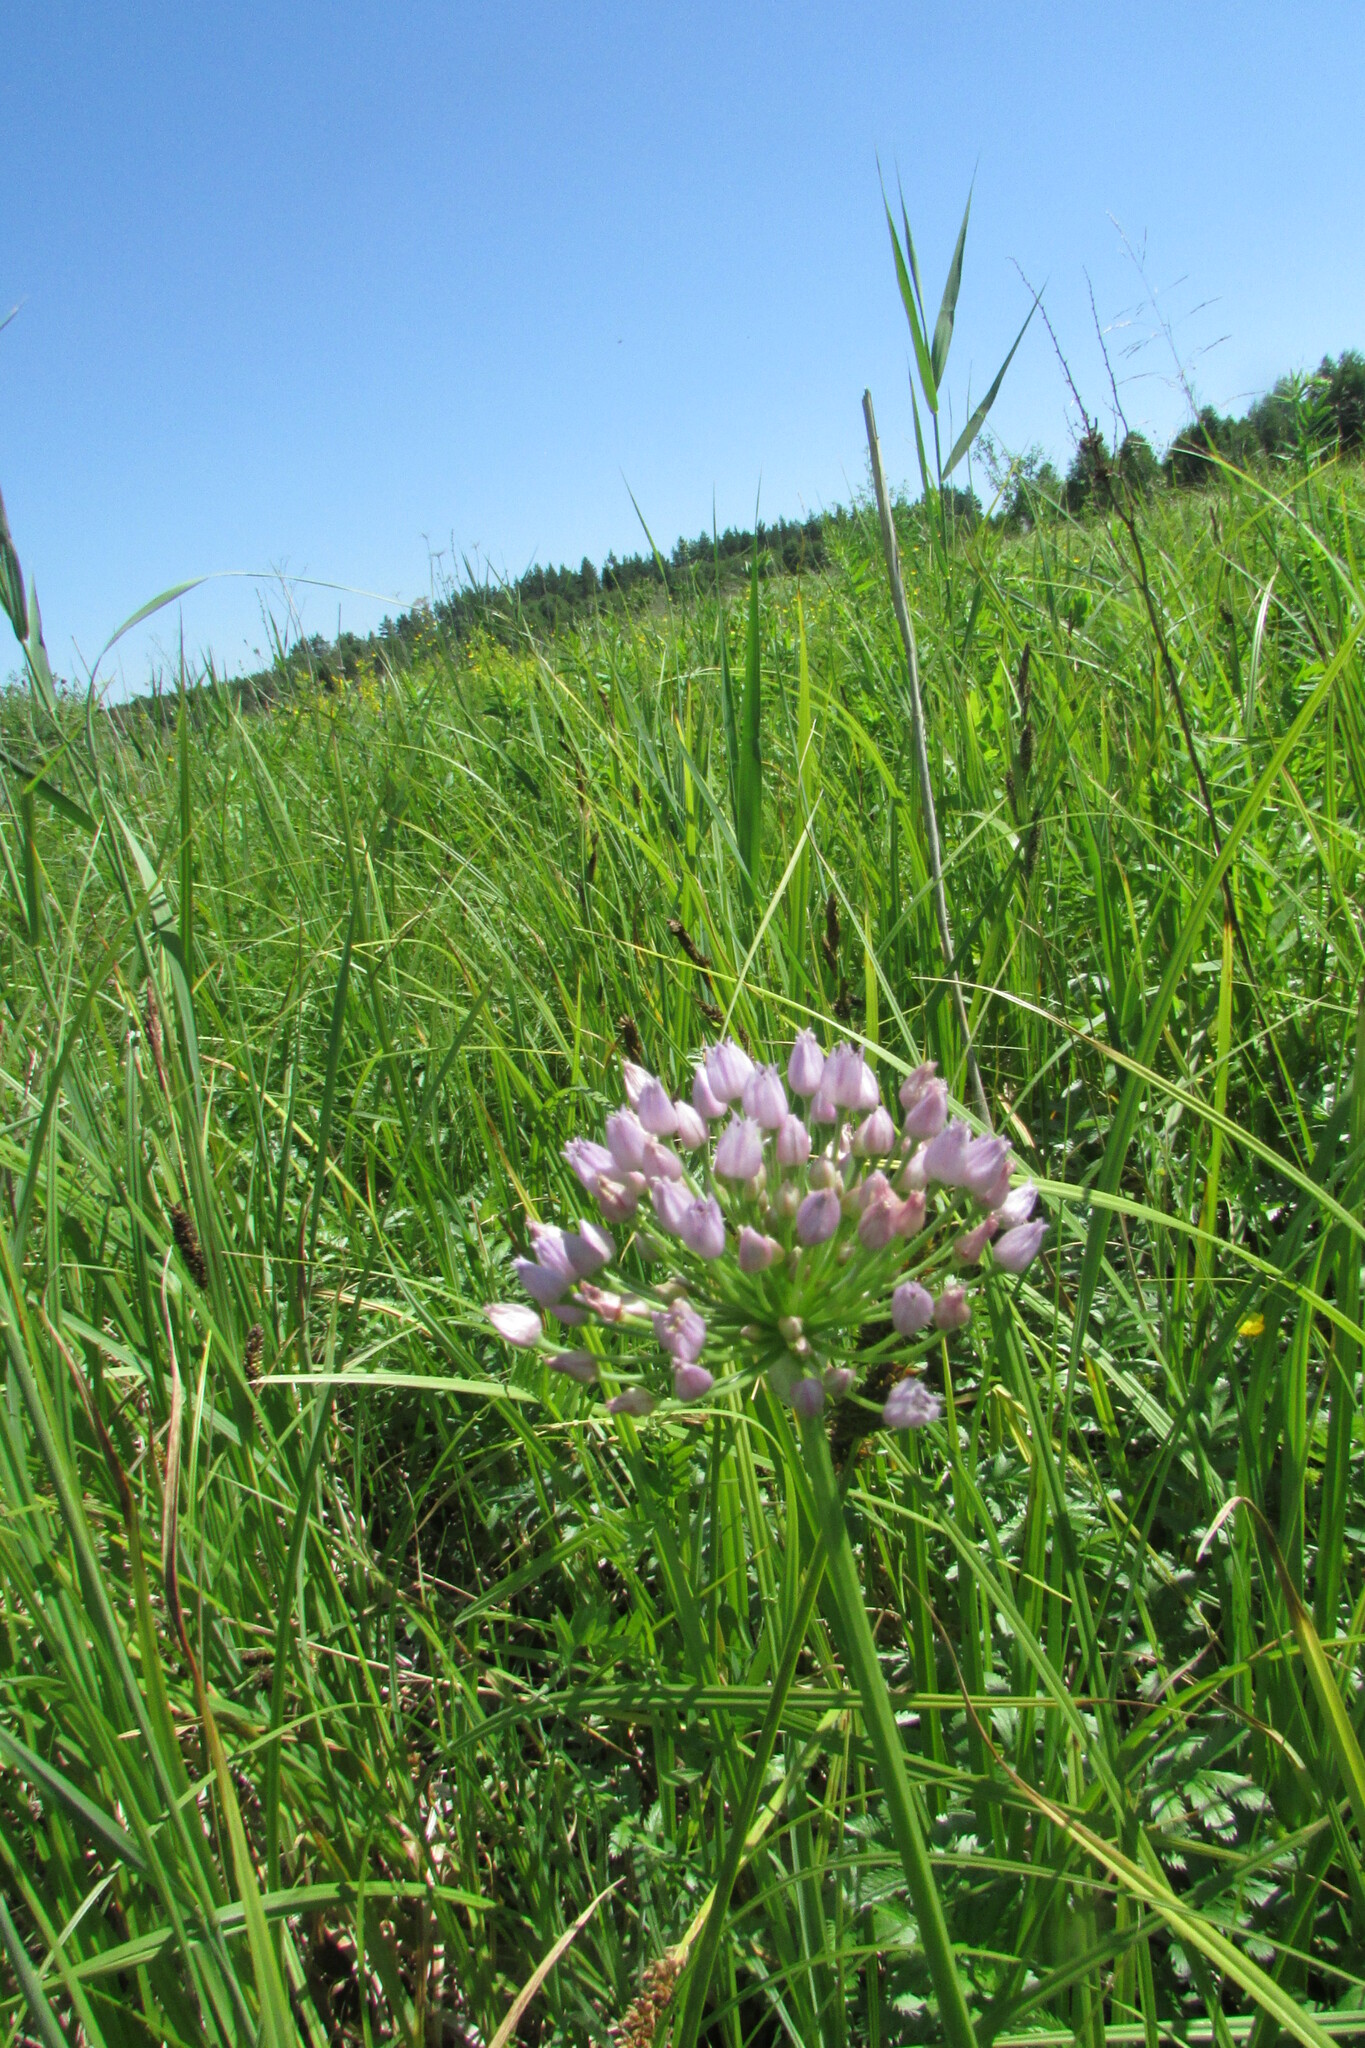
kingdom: Plantae
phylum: Tracheophyta
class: Liliopsida
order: Asparagales
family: Amaryllidaceae
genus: Allium
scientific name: Allium angulosum
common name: Mouse garlic
